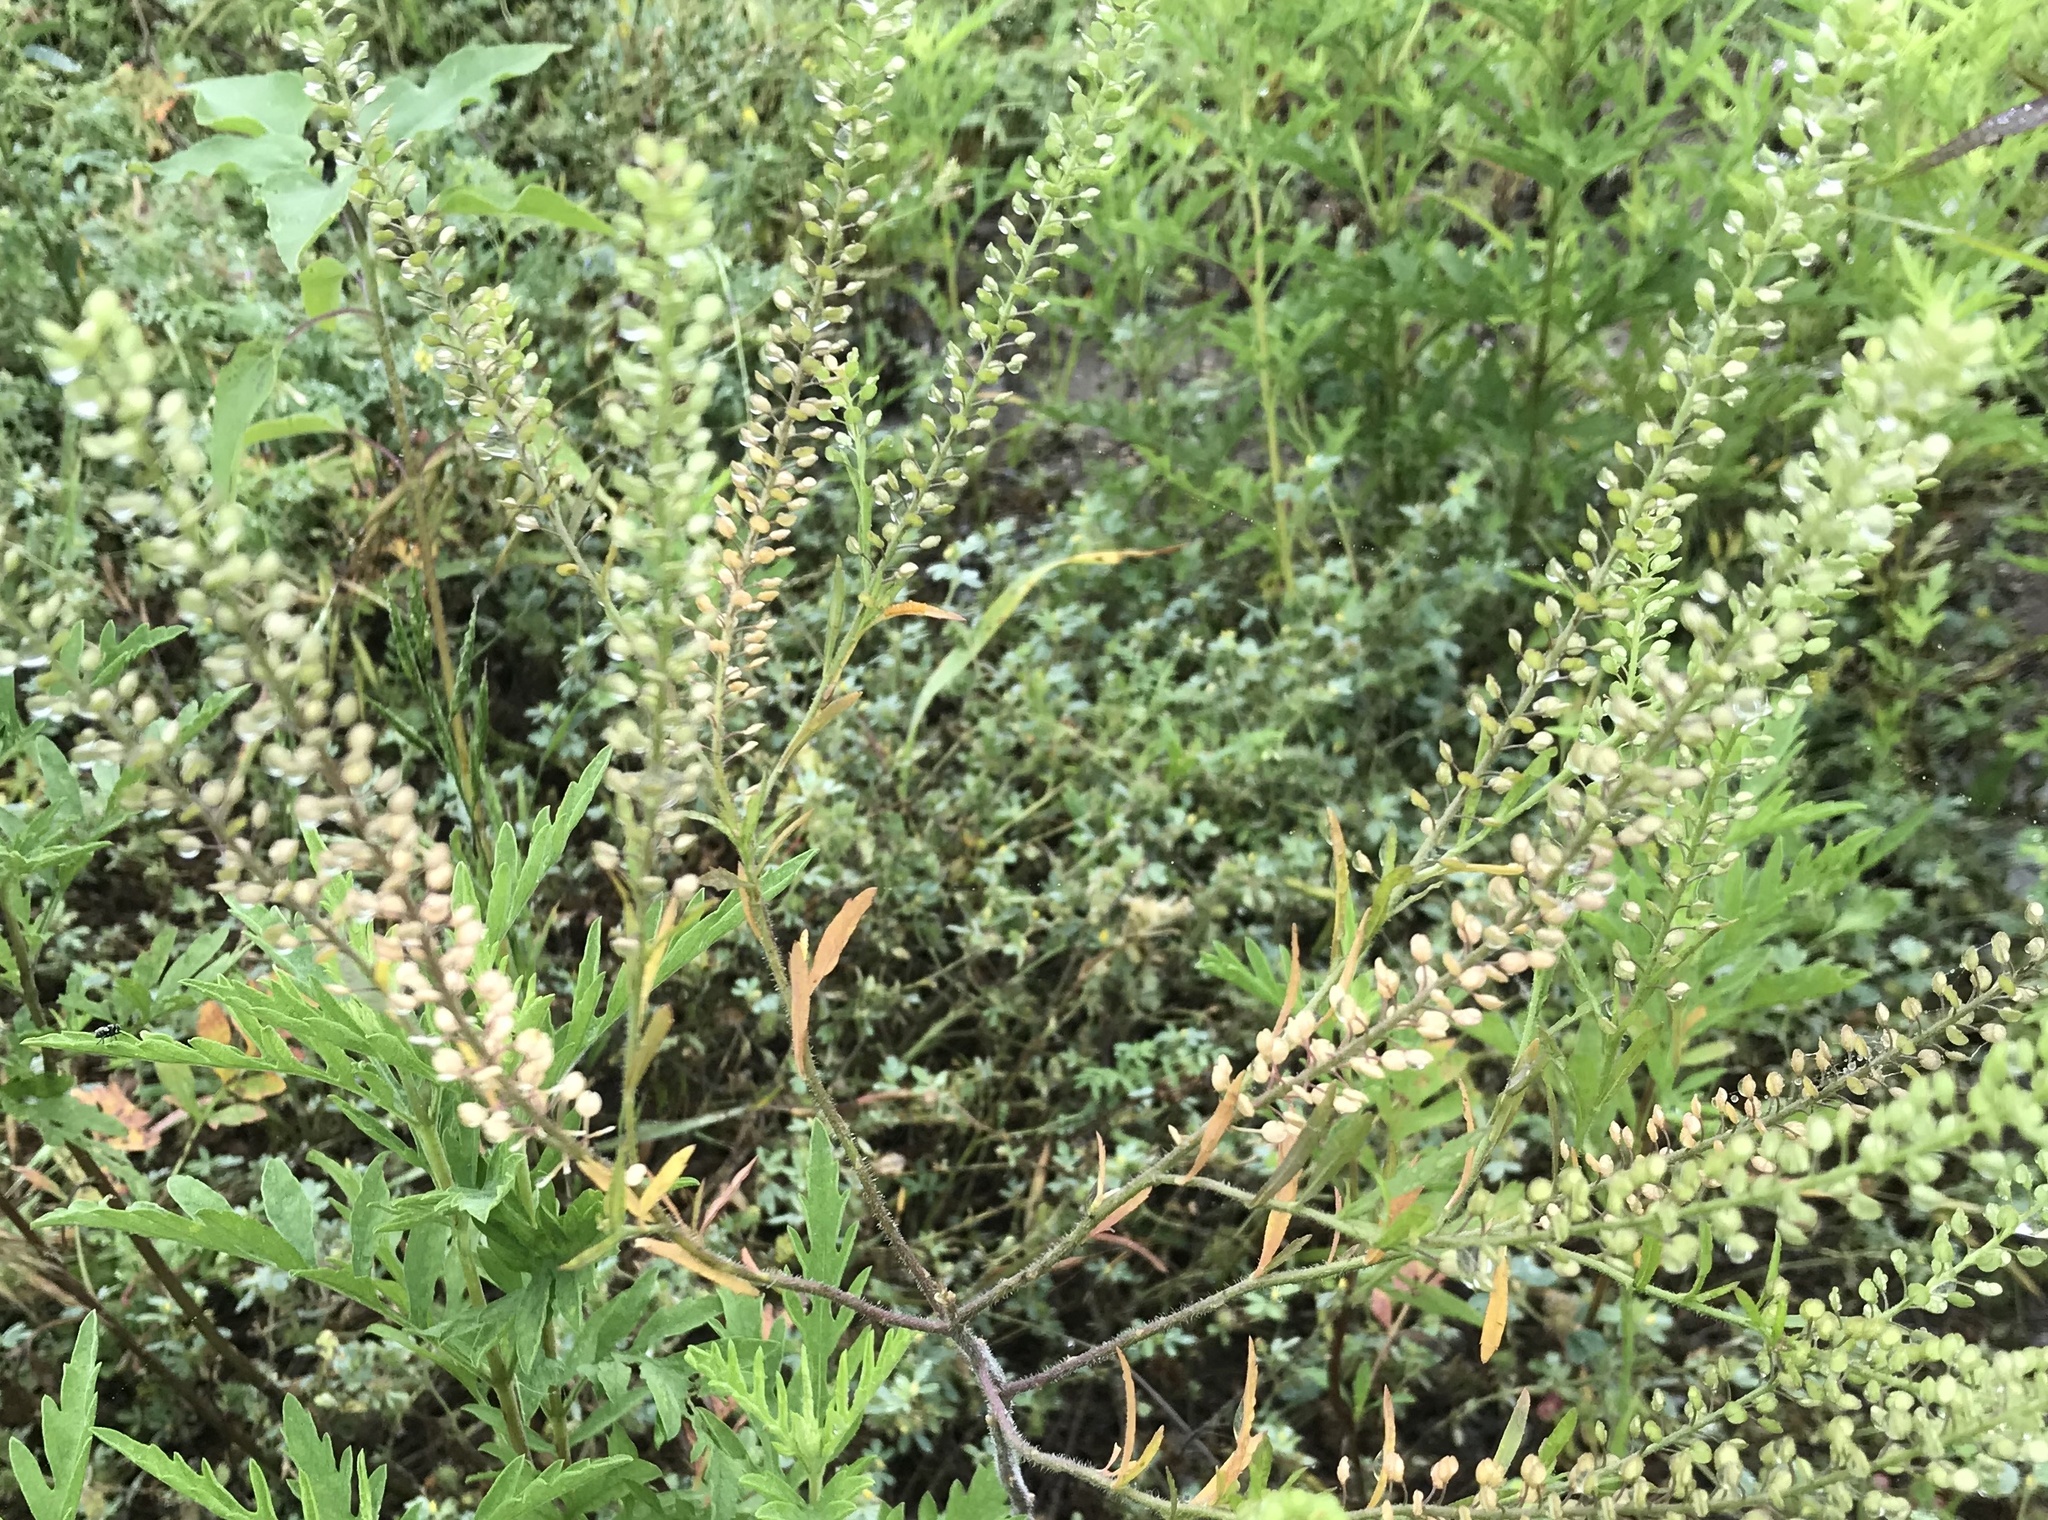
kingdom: Plantae
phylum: Tracheophyta
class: Magnoliopsida
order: Brassicales
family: Brassicaceae
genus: Lepidium
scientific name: Lepidium virginicum
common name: Least pepperwort
